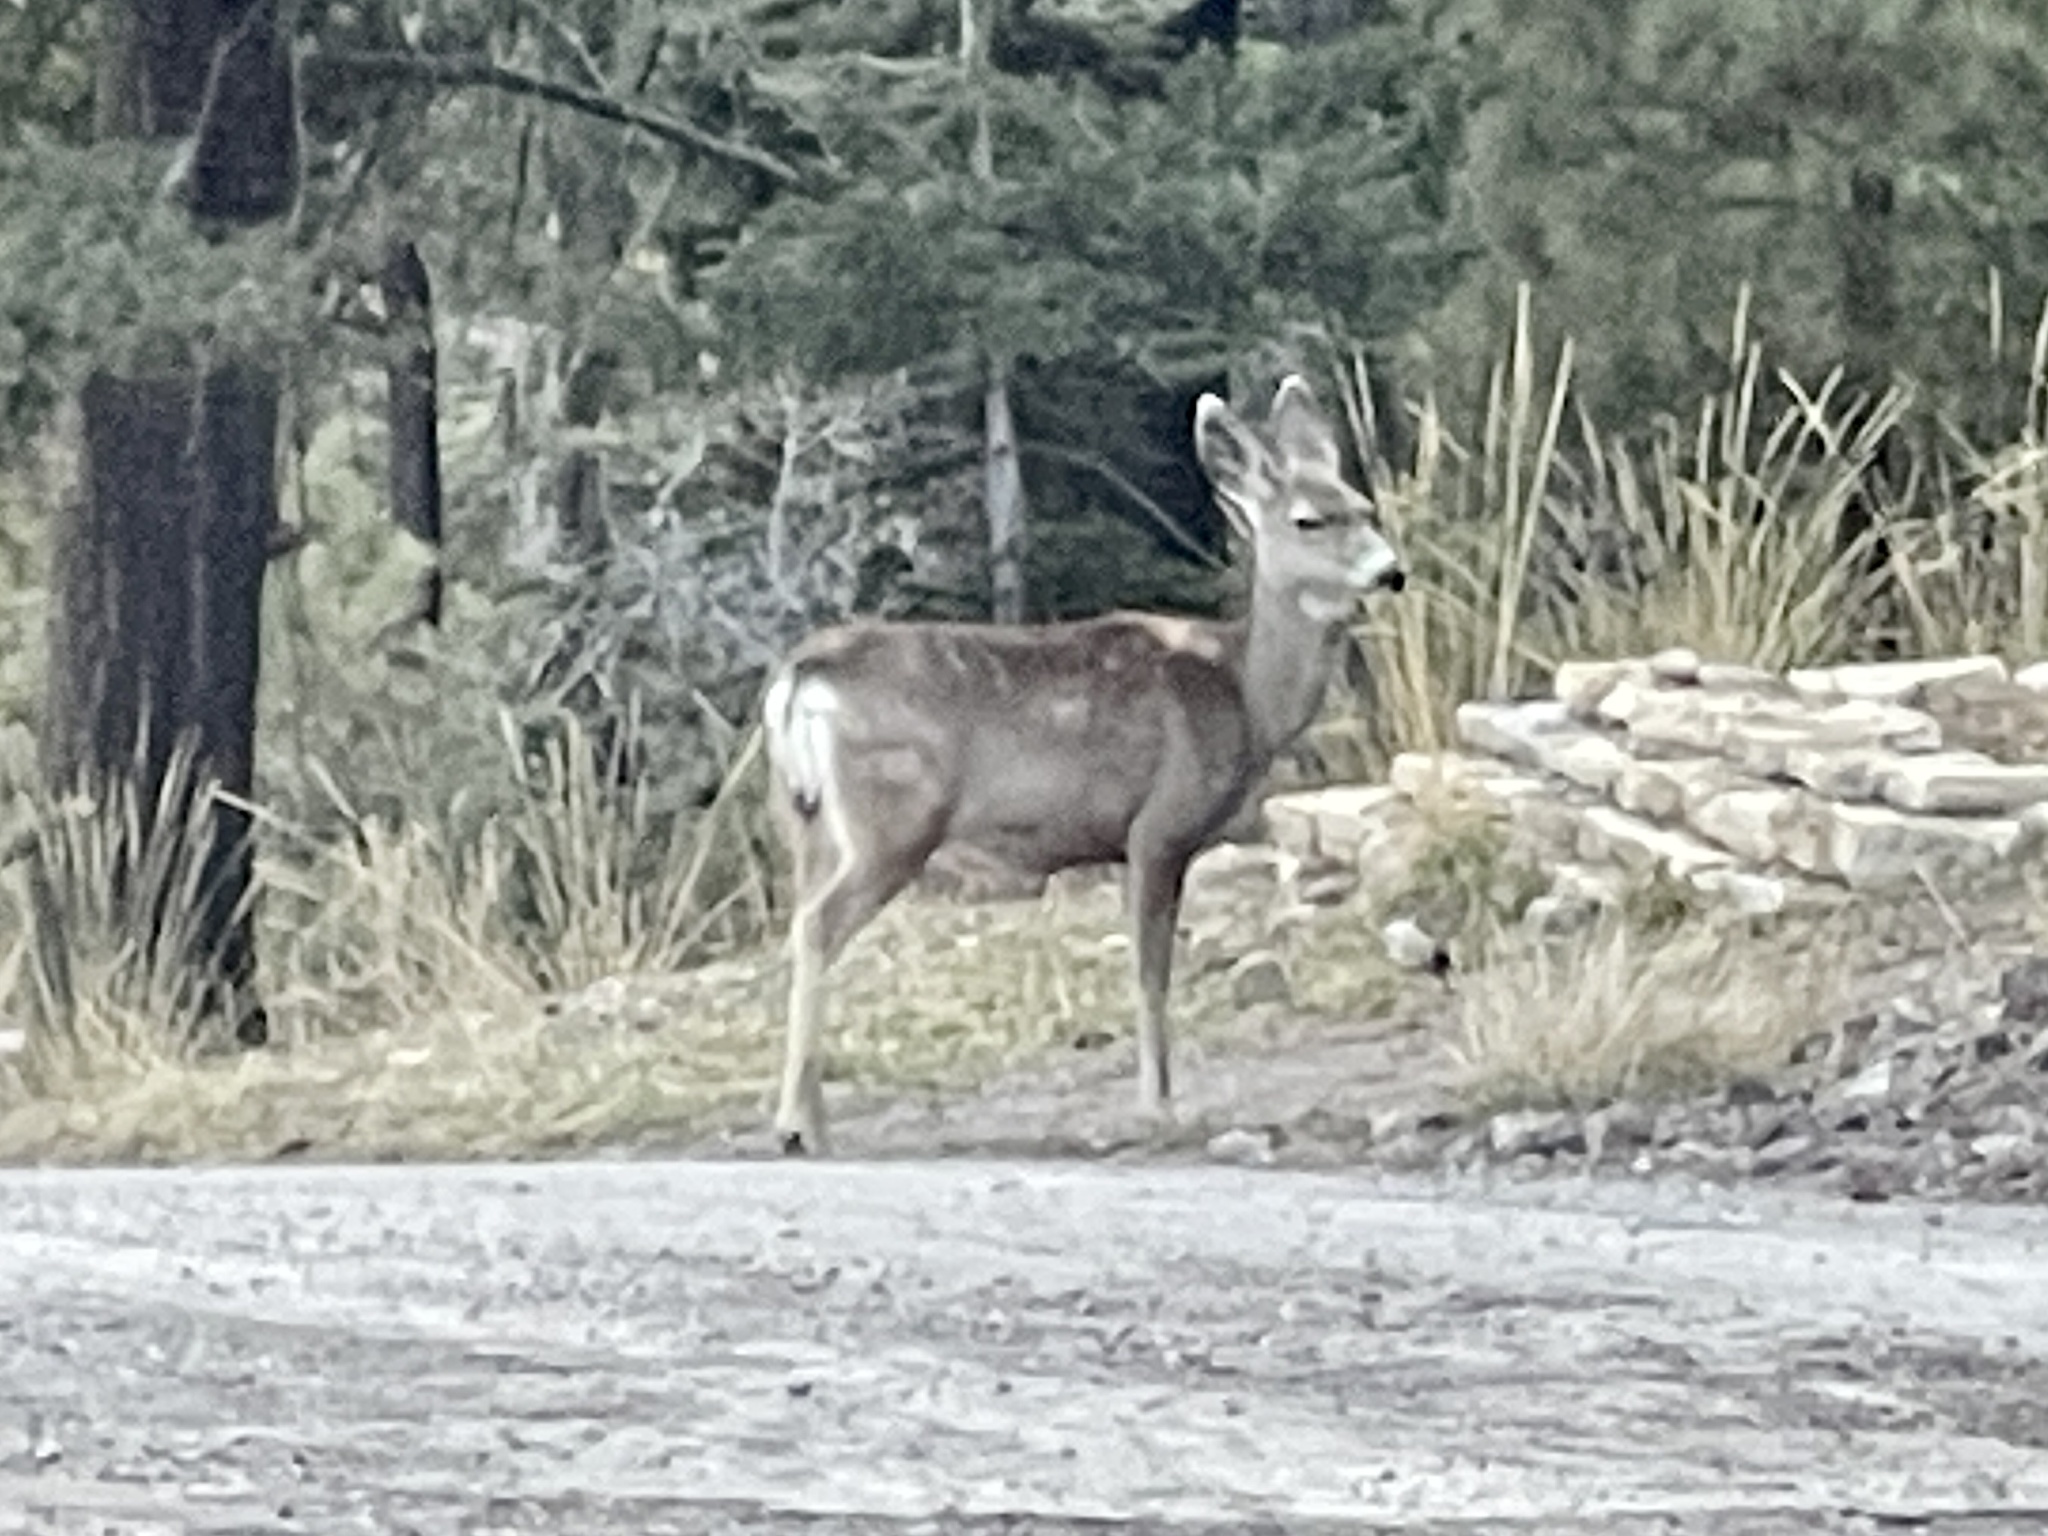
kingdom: Animalia
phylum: Chordata
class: Mammalia
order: Artiodactyla
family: Cervidae
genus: Odocoileus
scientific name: Odocoileus hemionus
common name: Mule deer
